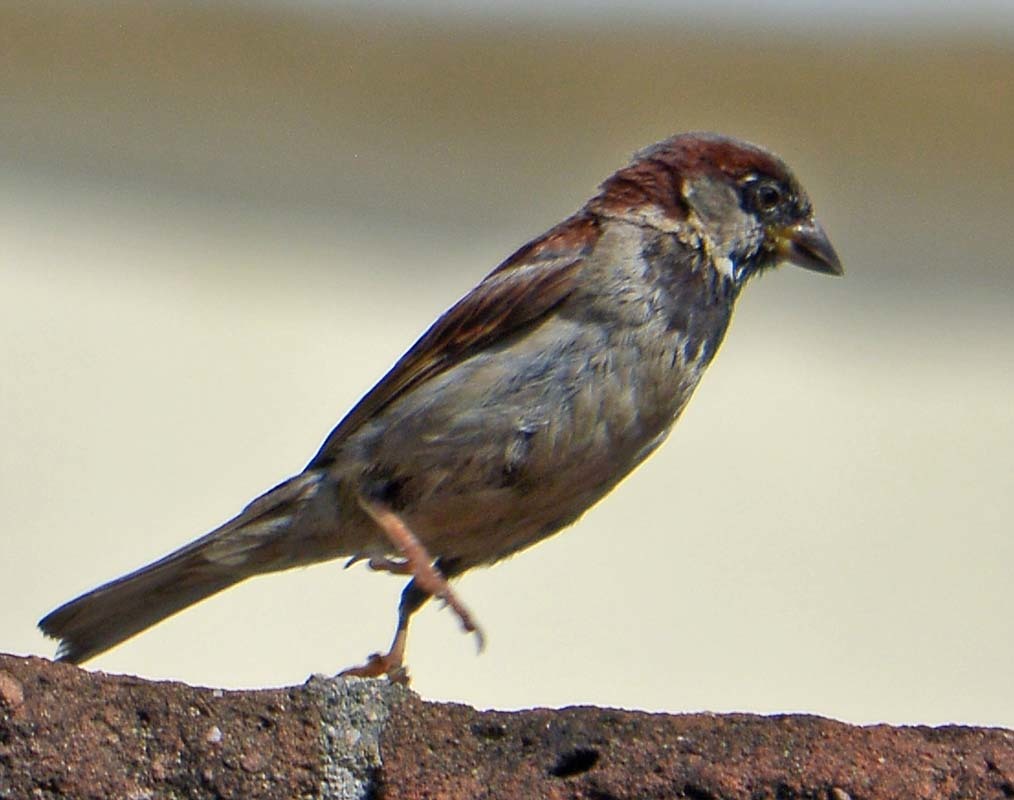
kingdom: Animalia
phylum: Chordata
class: Aves
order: Passeriformes
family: Passeridae
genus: Passer
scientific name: Passer domesticus
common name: House sparrow
